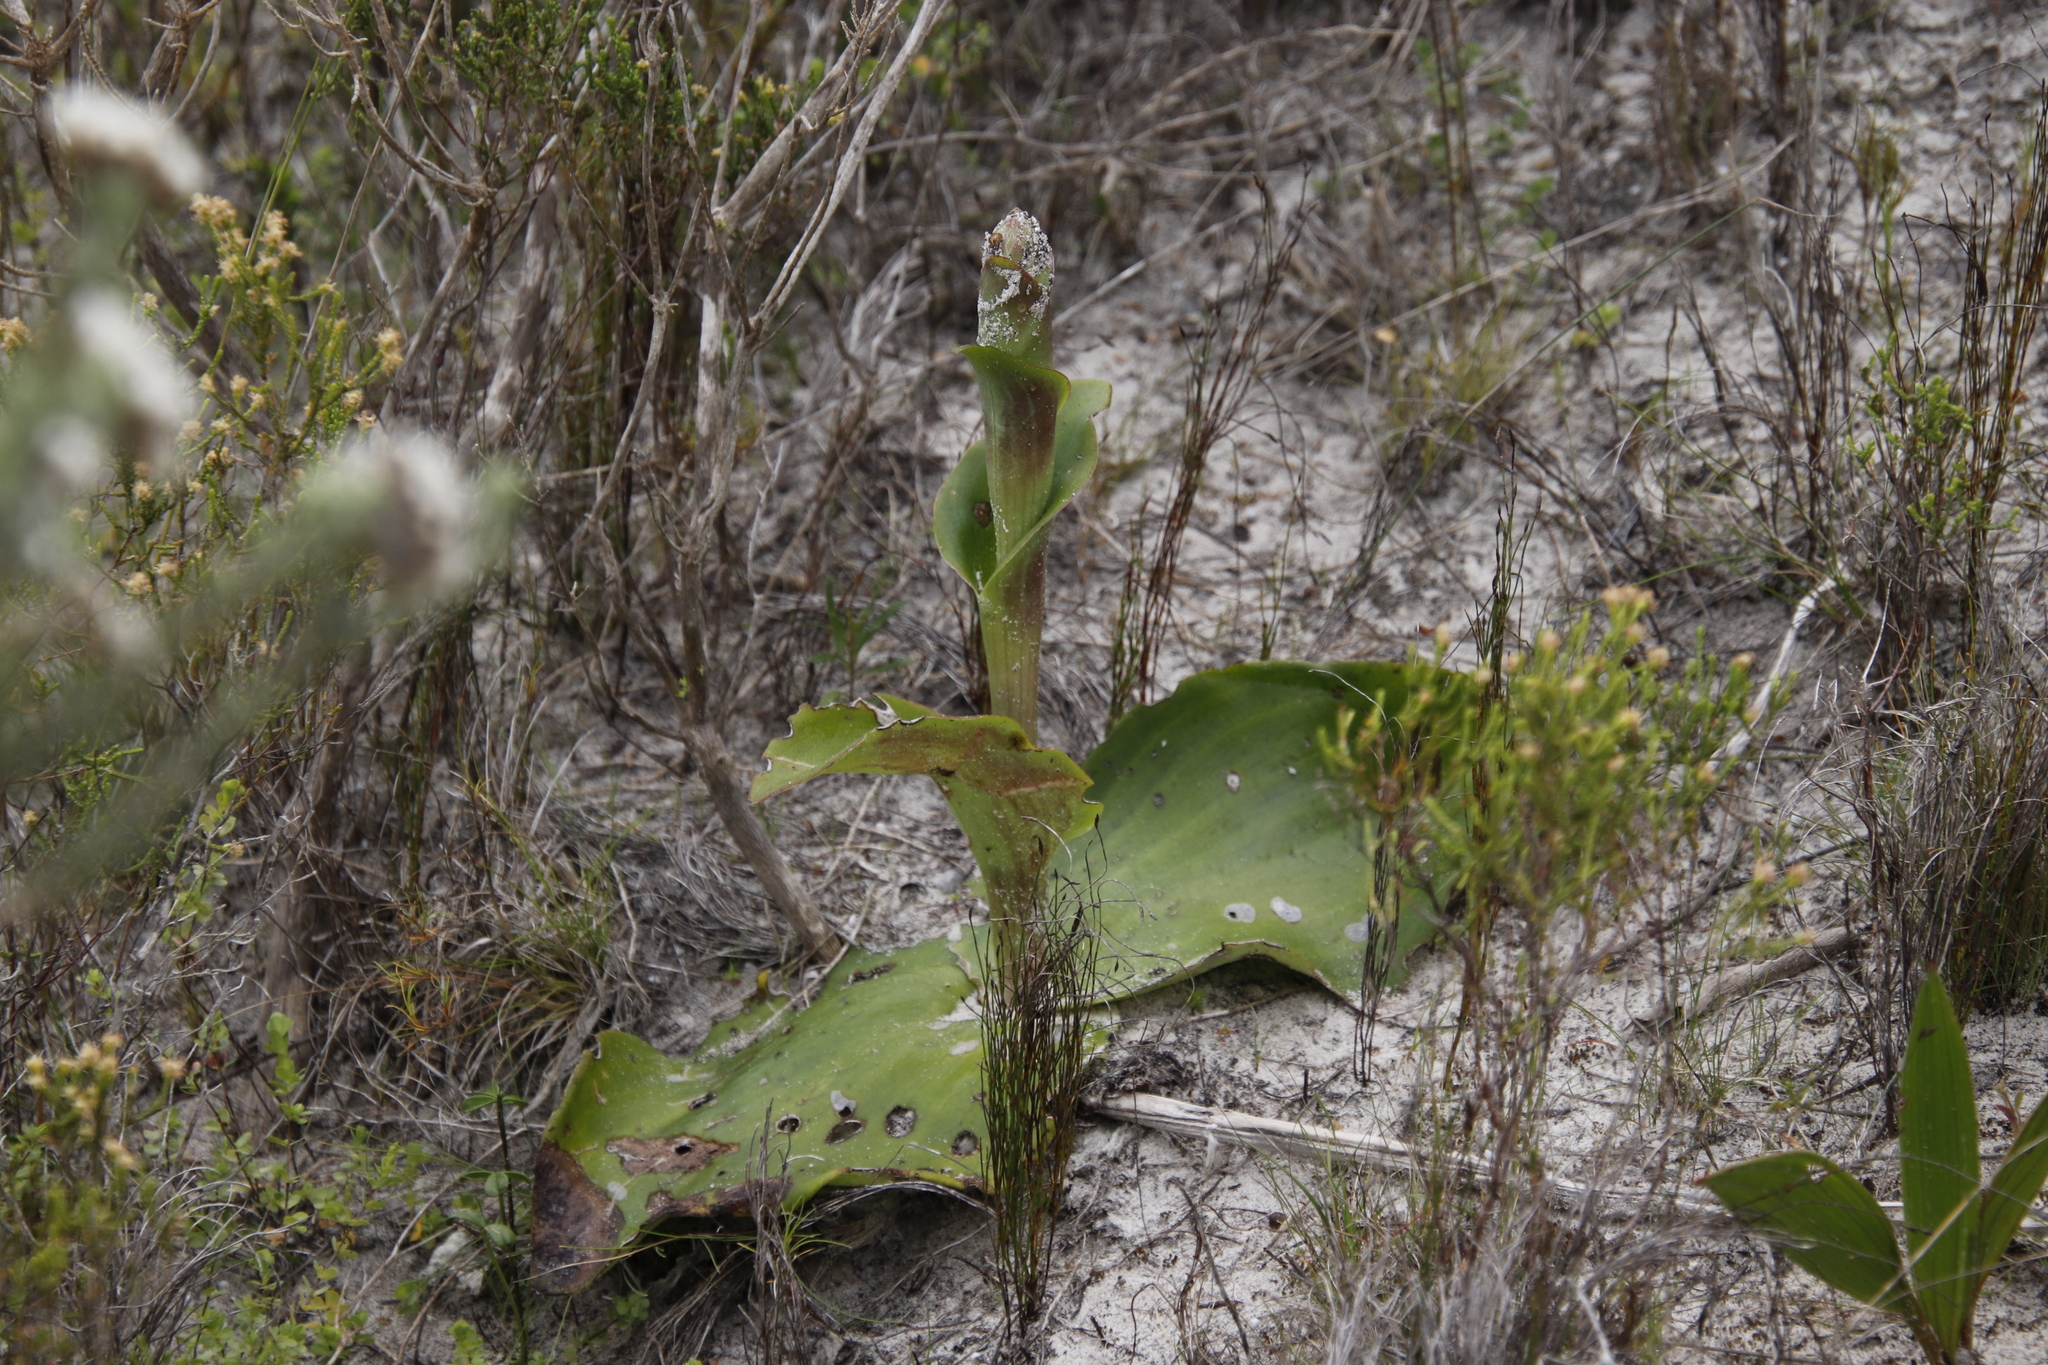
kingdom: Plantae
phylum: Tracheophyta
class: Liliopsida
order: Asparagales
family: Orchidaceae
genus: Satyrium
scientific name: Satyrium carneum
